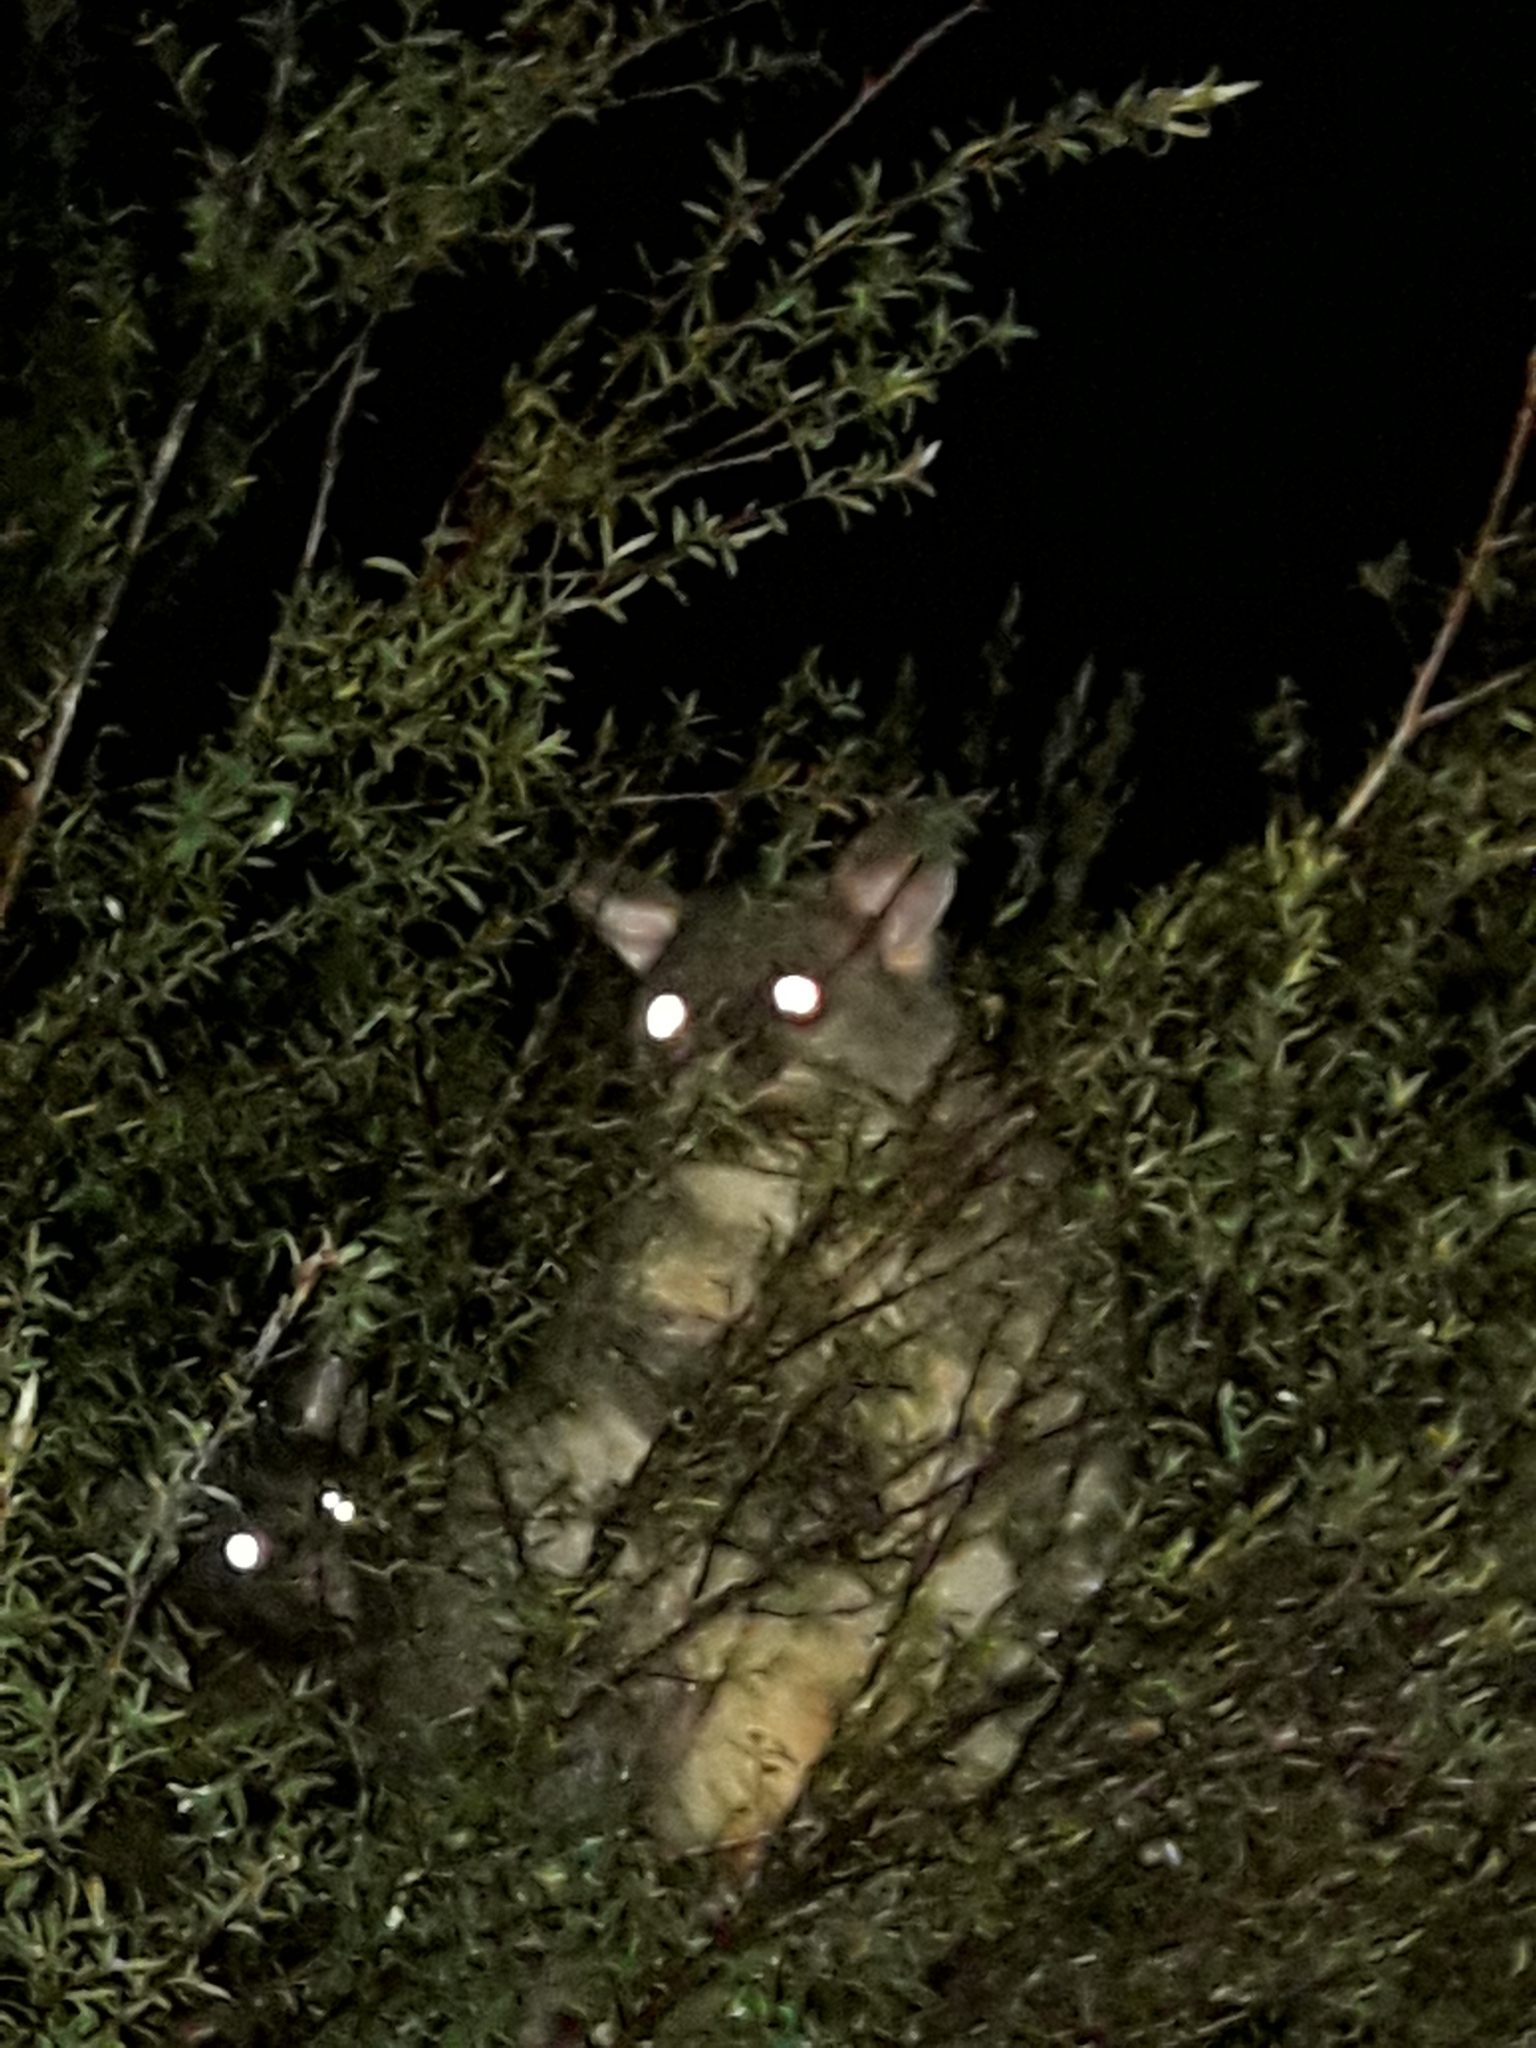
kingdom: Animalia
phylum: Chordata
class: Mammalia
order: Diprotodontia
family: Phalangeridae
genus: Trichosurus
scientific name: Trichosurus vulpecula
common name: Common brushtail
